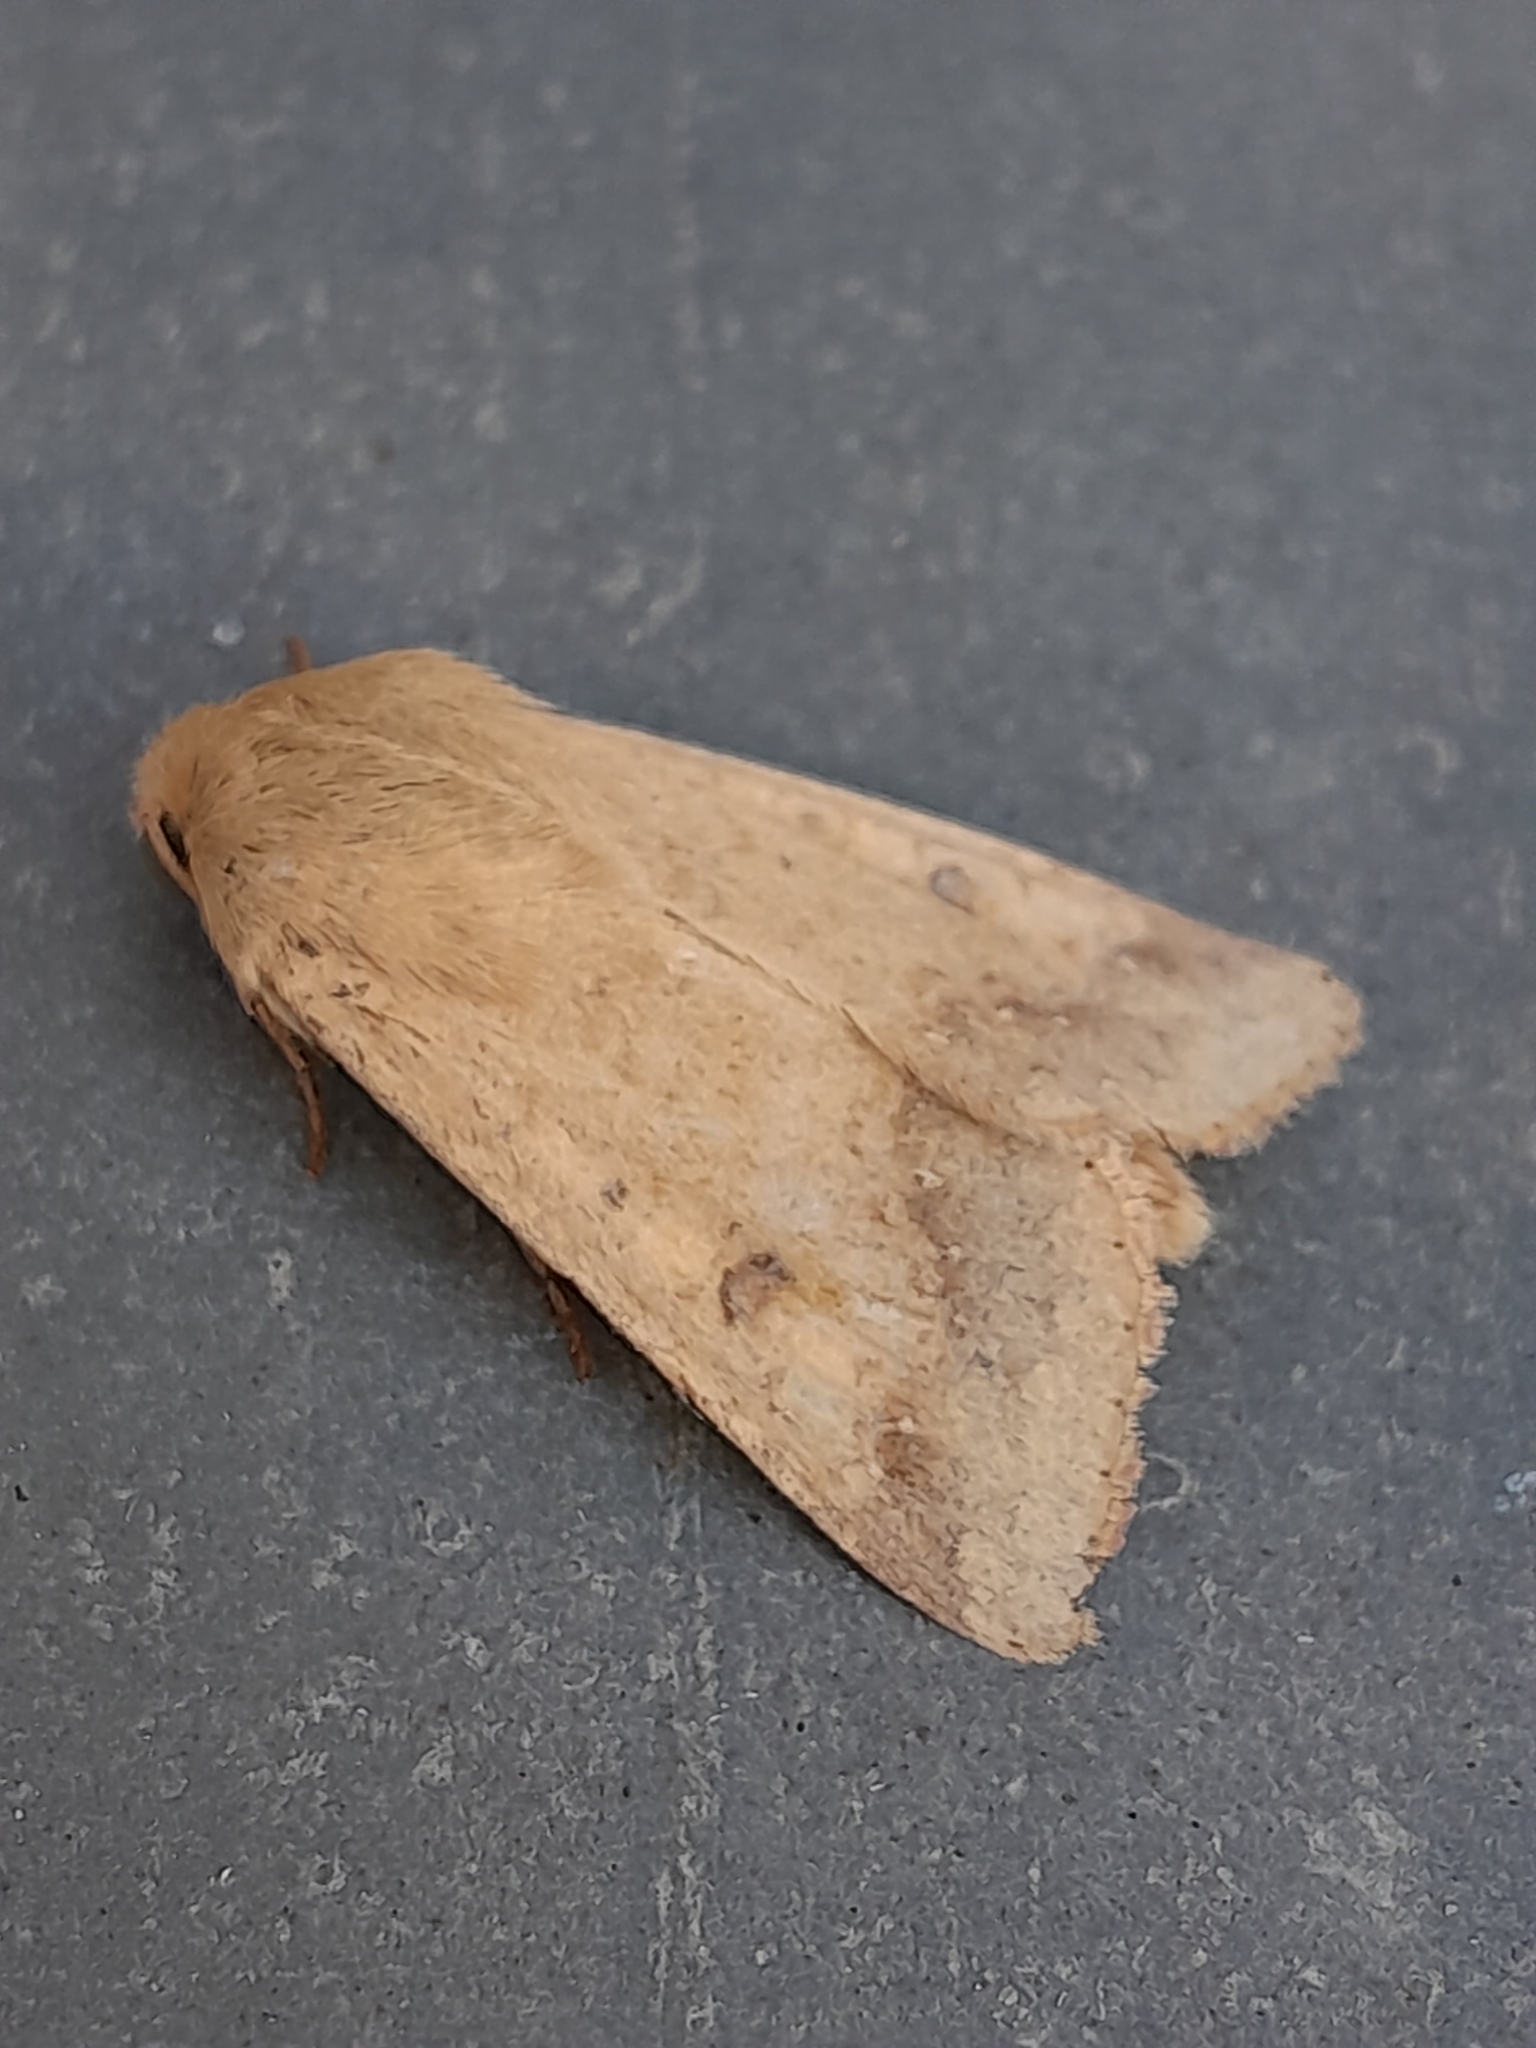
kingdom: Animalia
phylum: Arthropoda
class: Insecta
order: Lepidoptera
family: Noctuidae
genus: Helicoverpa
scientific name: Helicoverpa armigera
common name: Cotton bollworm
